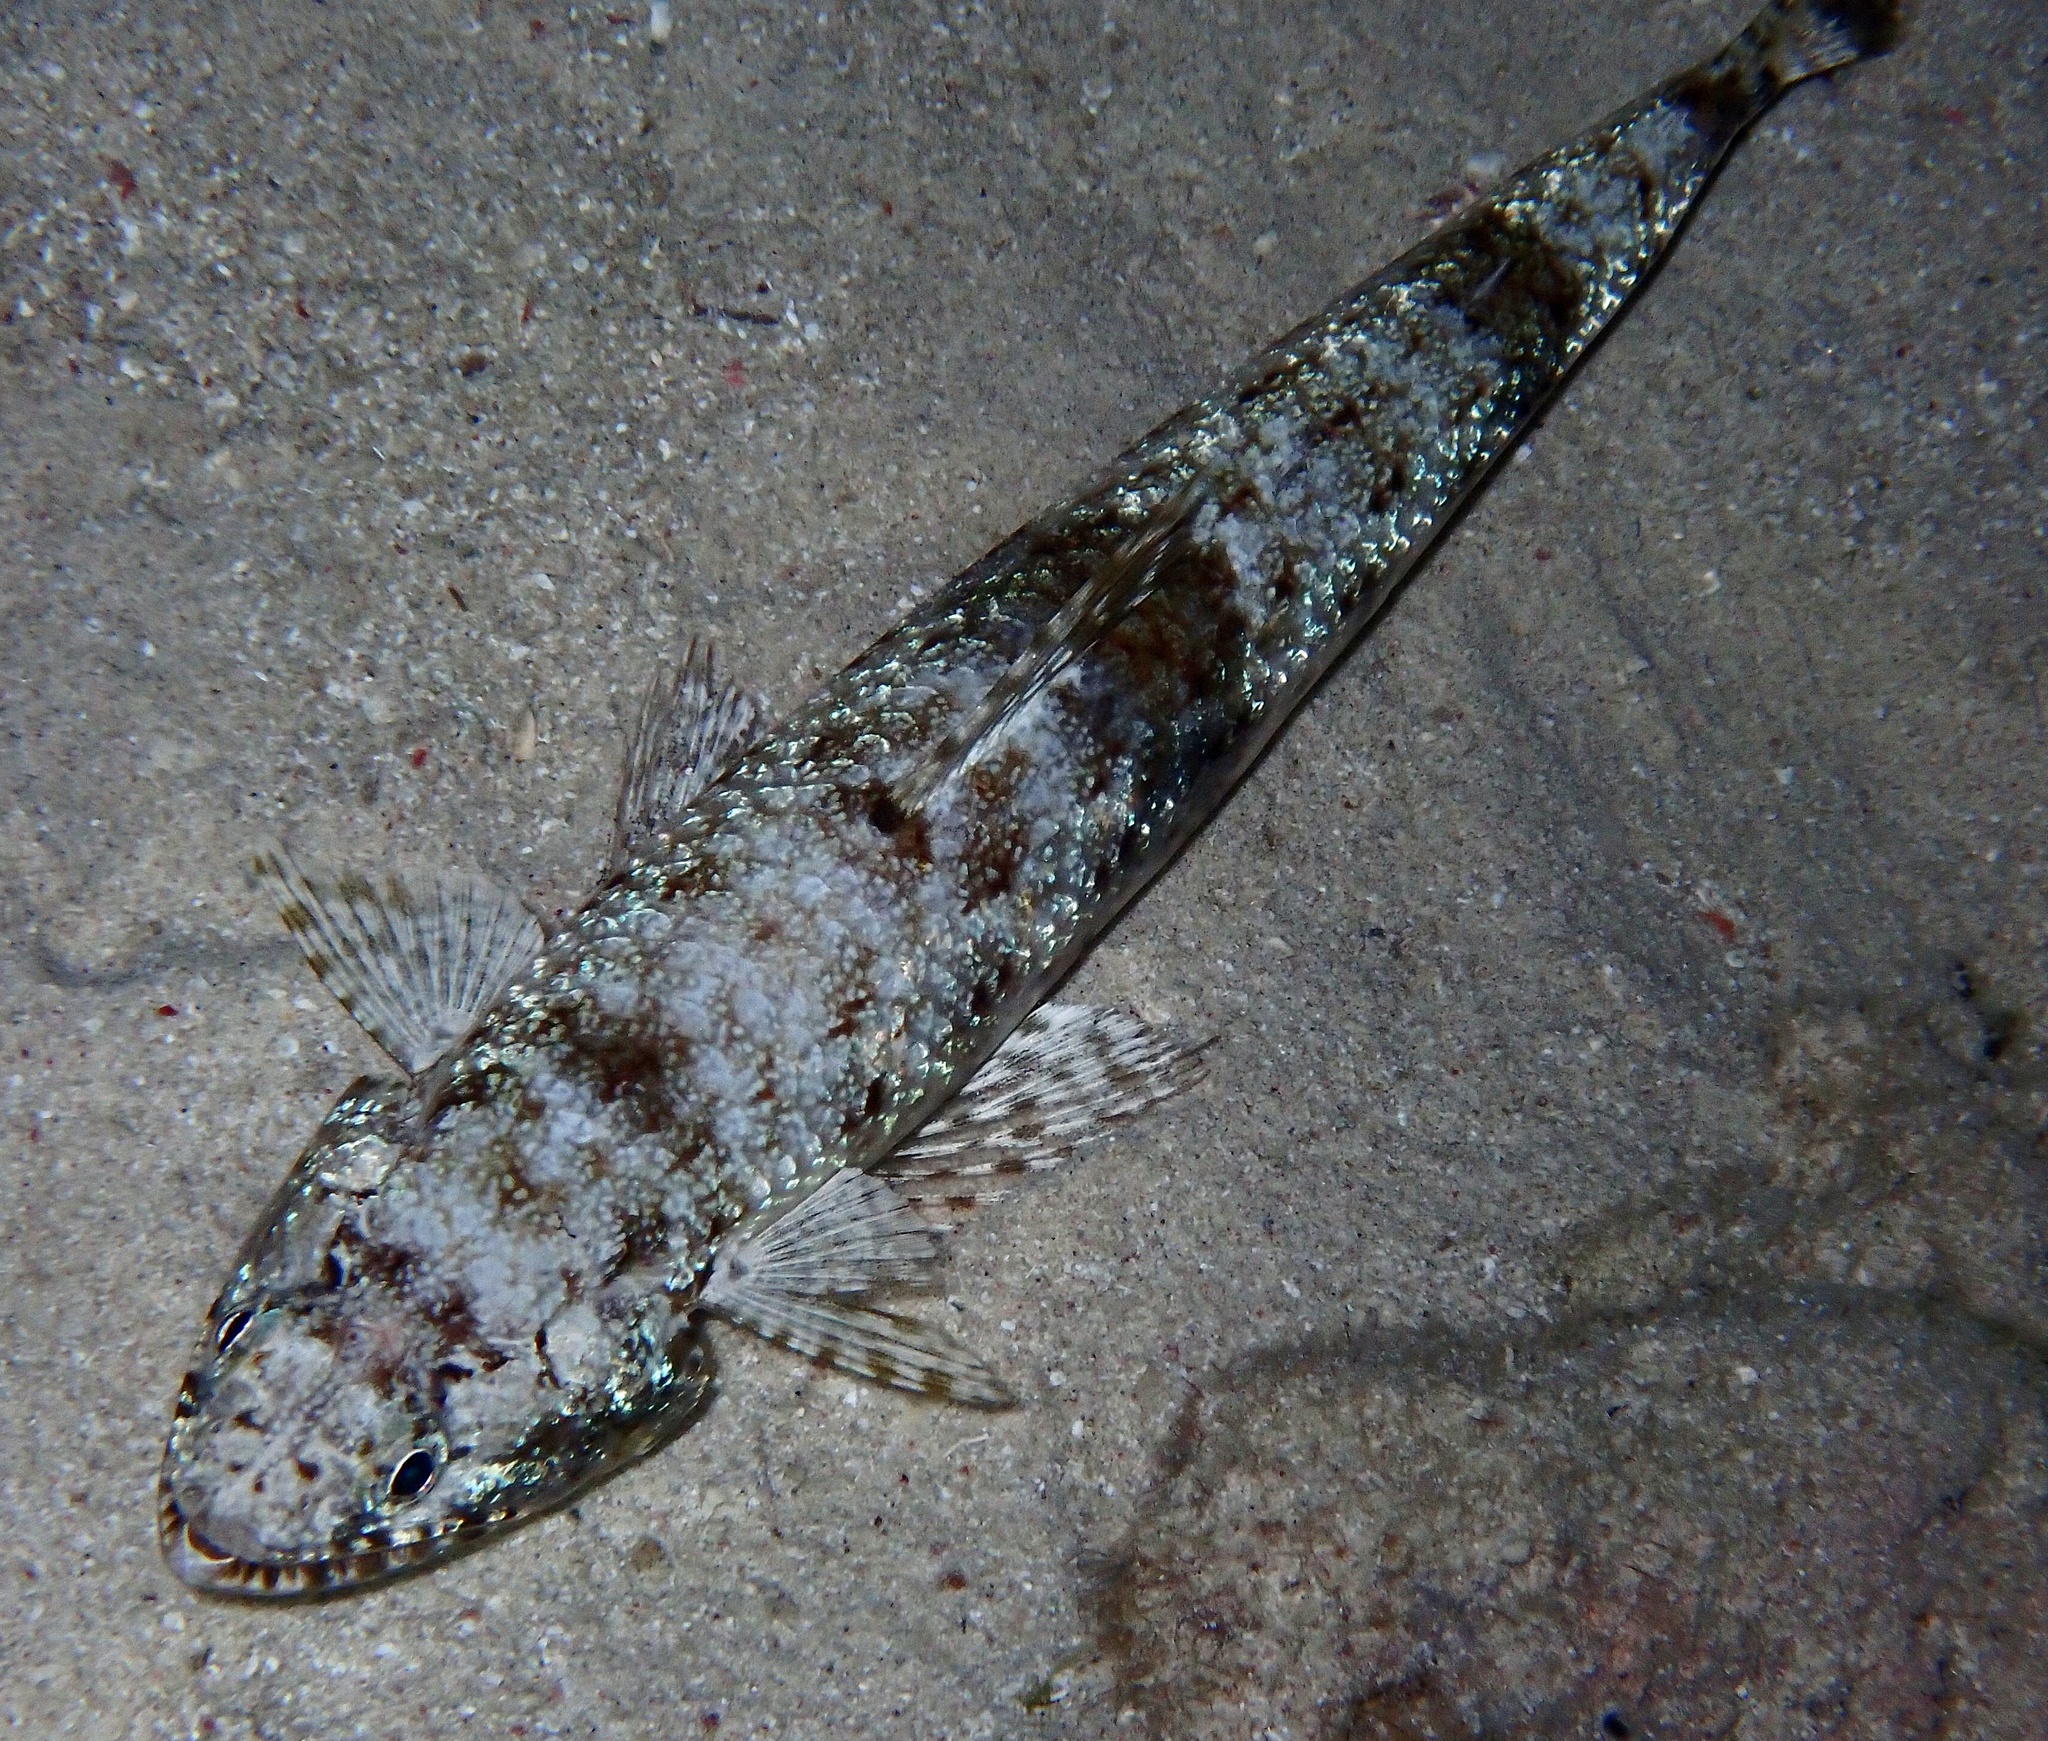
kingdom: Animalia
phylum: Chordata
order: Aulopiformes
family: Synodontidae
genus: Saurida
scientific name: Saurida gracilis
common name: Slender lizardfish
